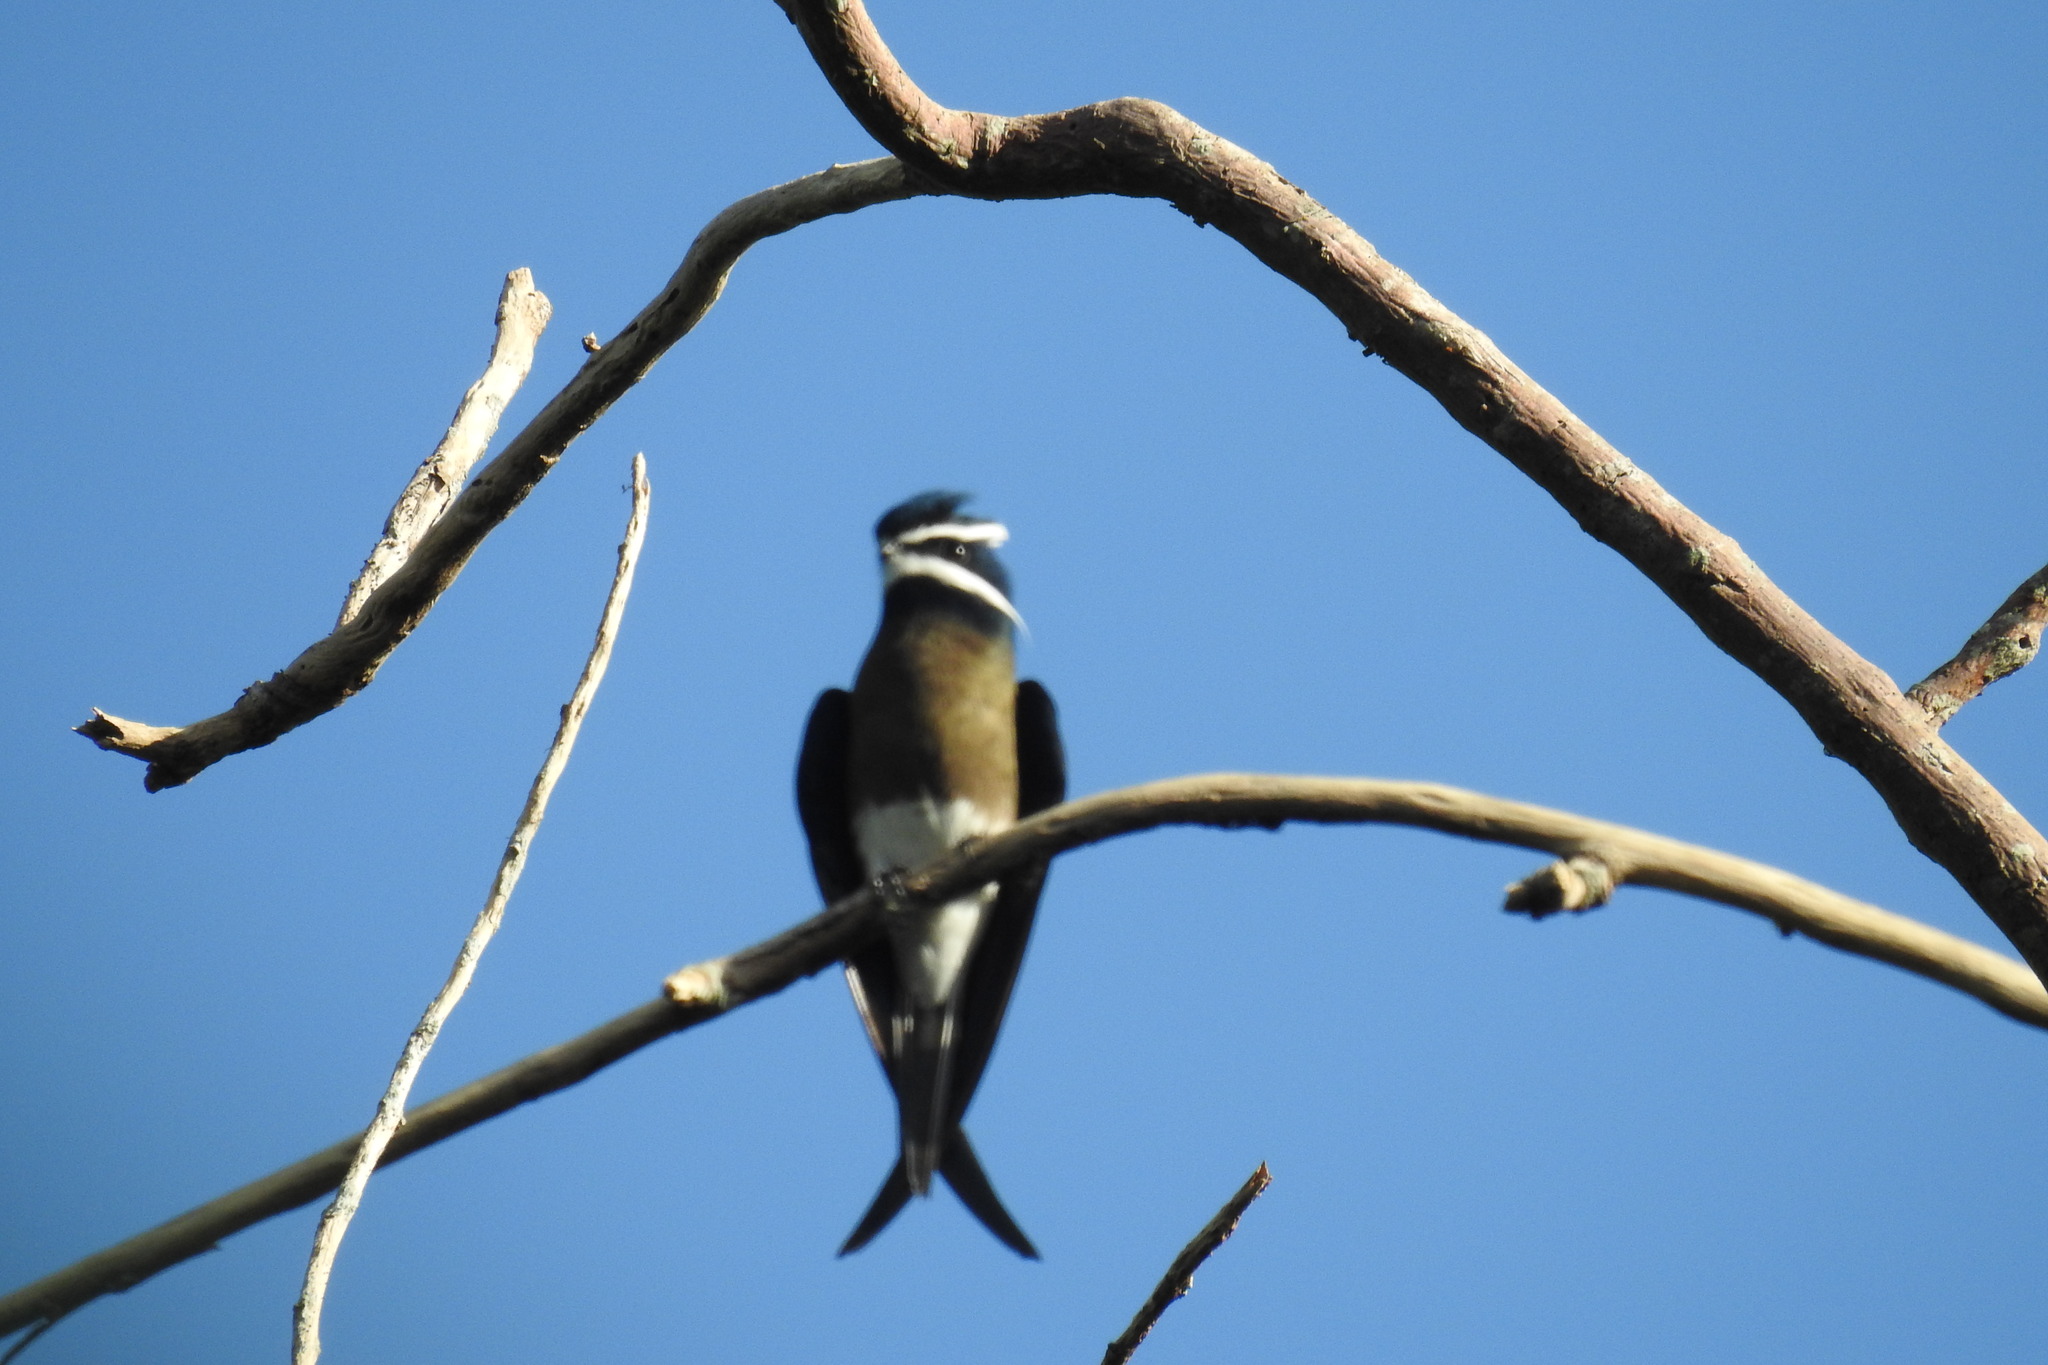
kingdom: Animalia
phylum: Chordata
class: Aves
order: Apodiformes
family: Hemiprocnidae
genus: Hemiprocne
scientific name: Hemiprocne comata
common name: Whiskered treeswift
